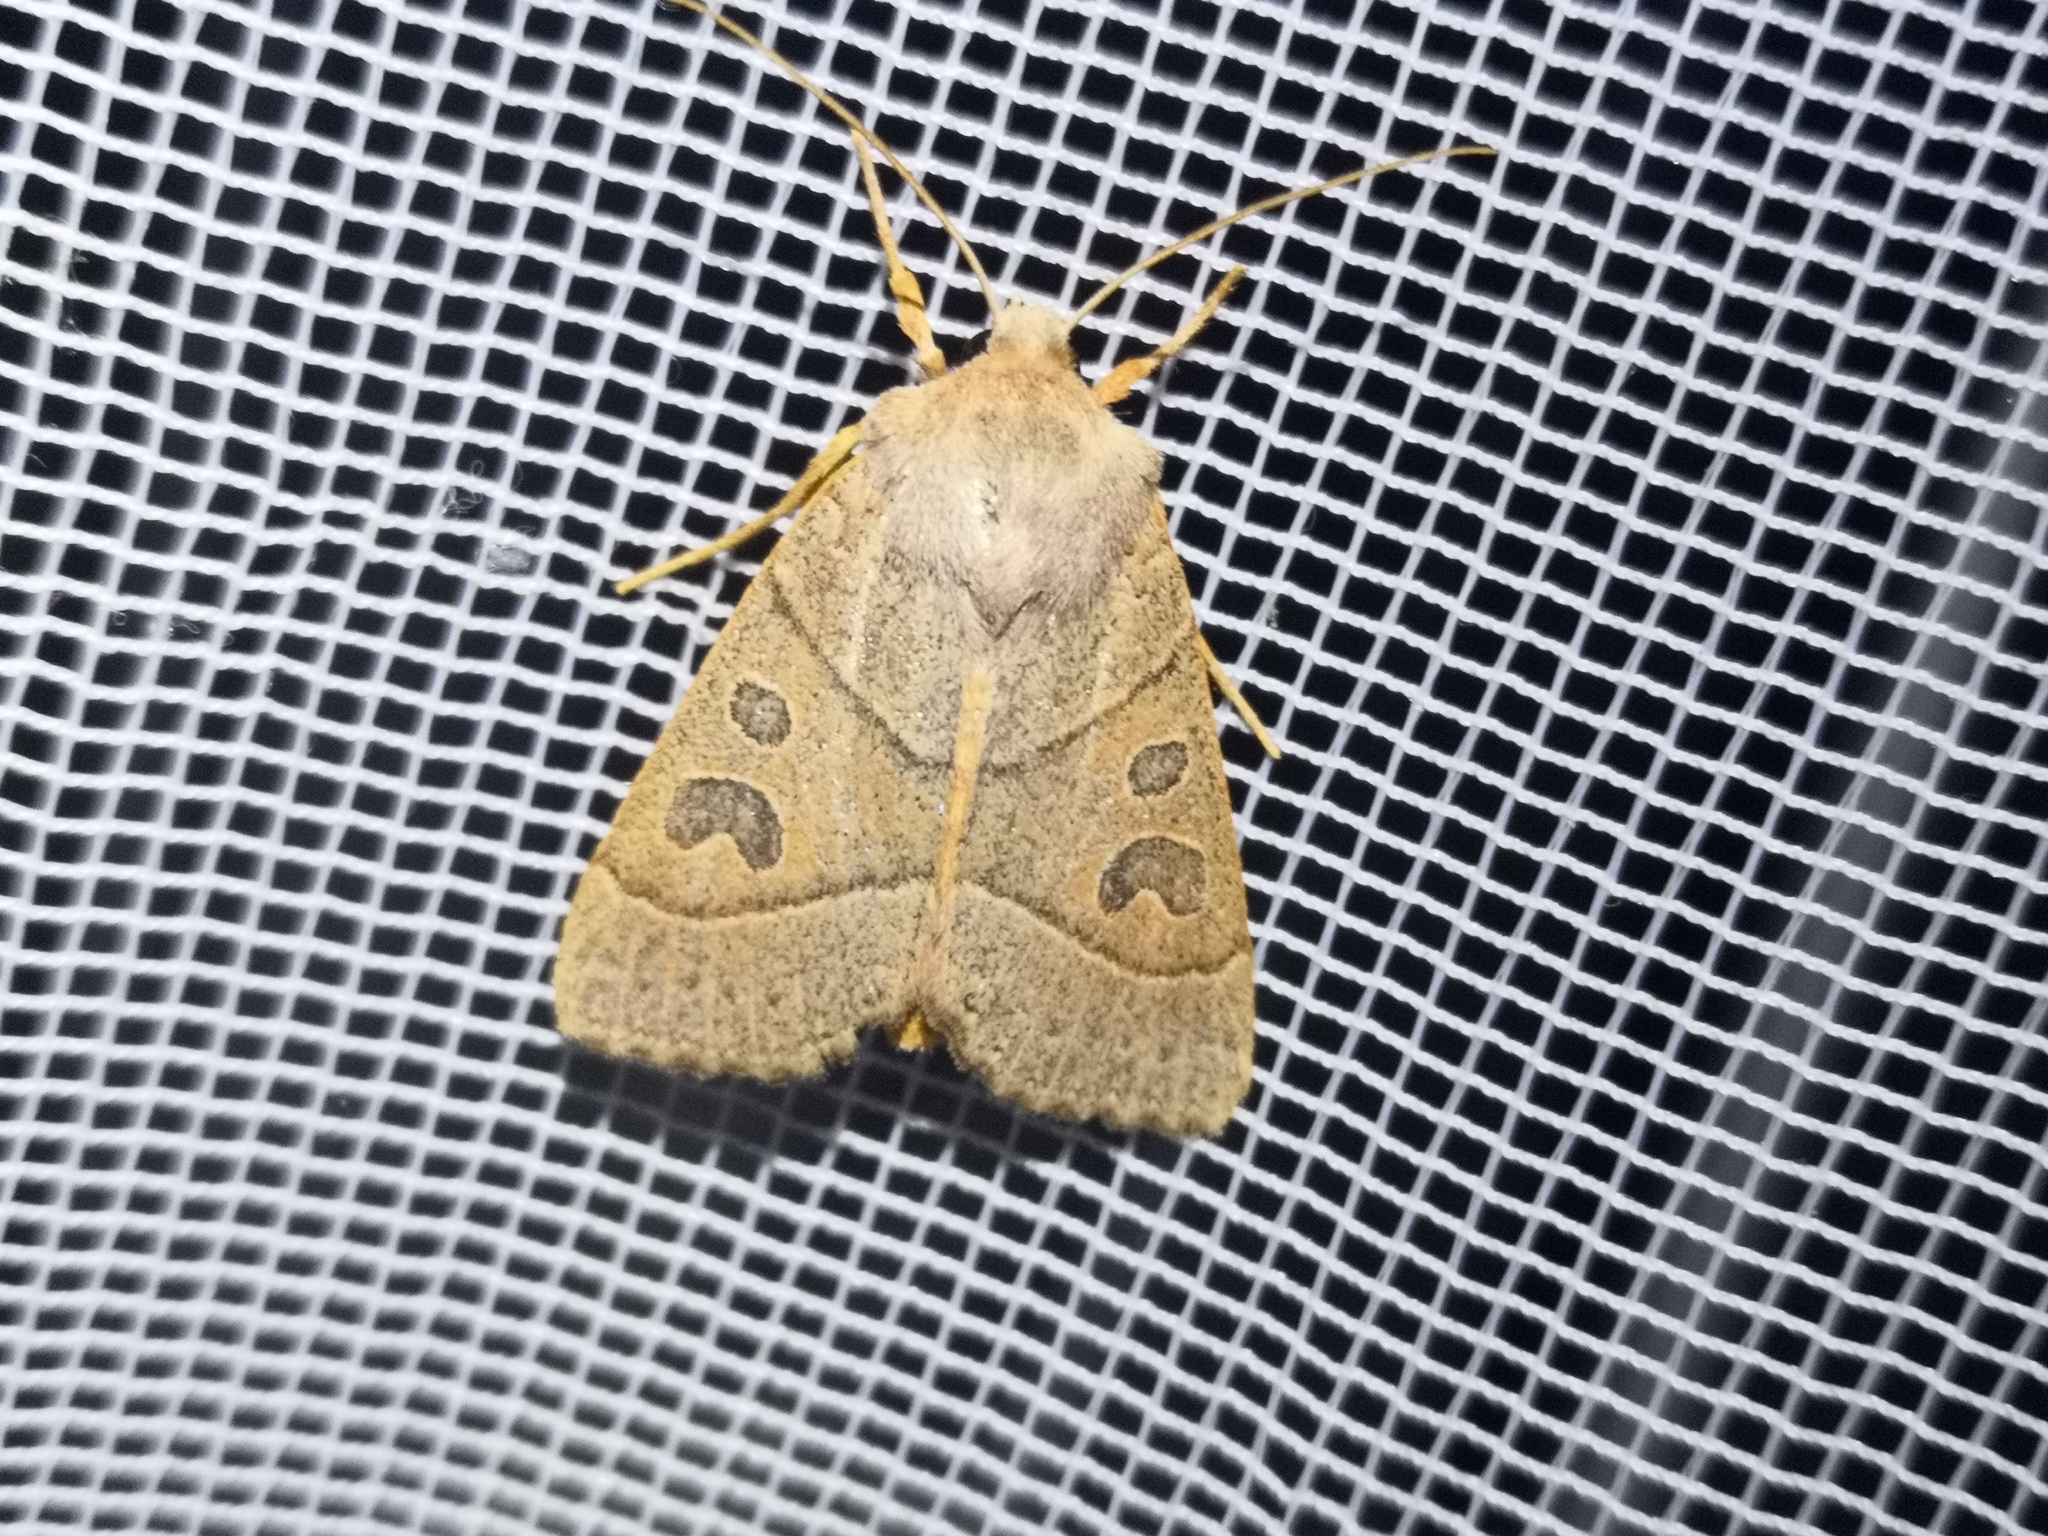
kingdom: Animalia
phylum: Arthropoda
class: Insecta
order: Lepidoptera
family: Noctuidae
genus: Mesogona
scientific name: Mesogona acetosellae
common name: Pale stigma
